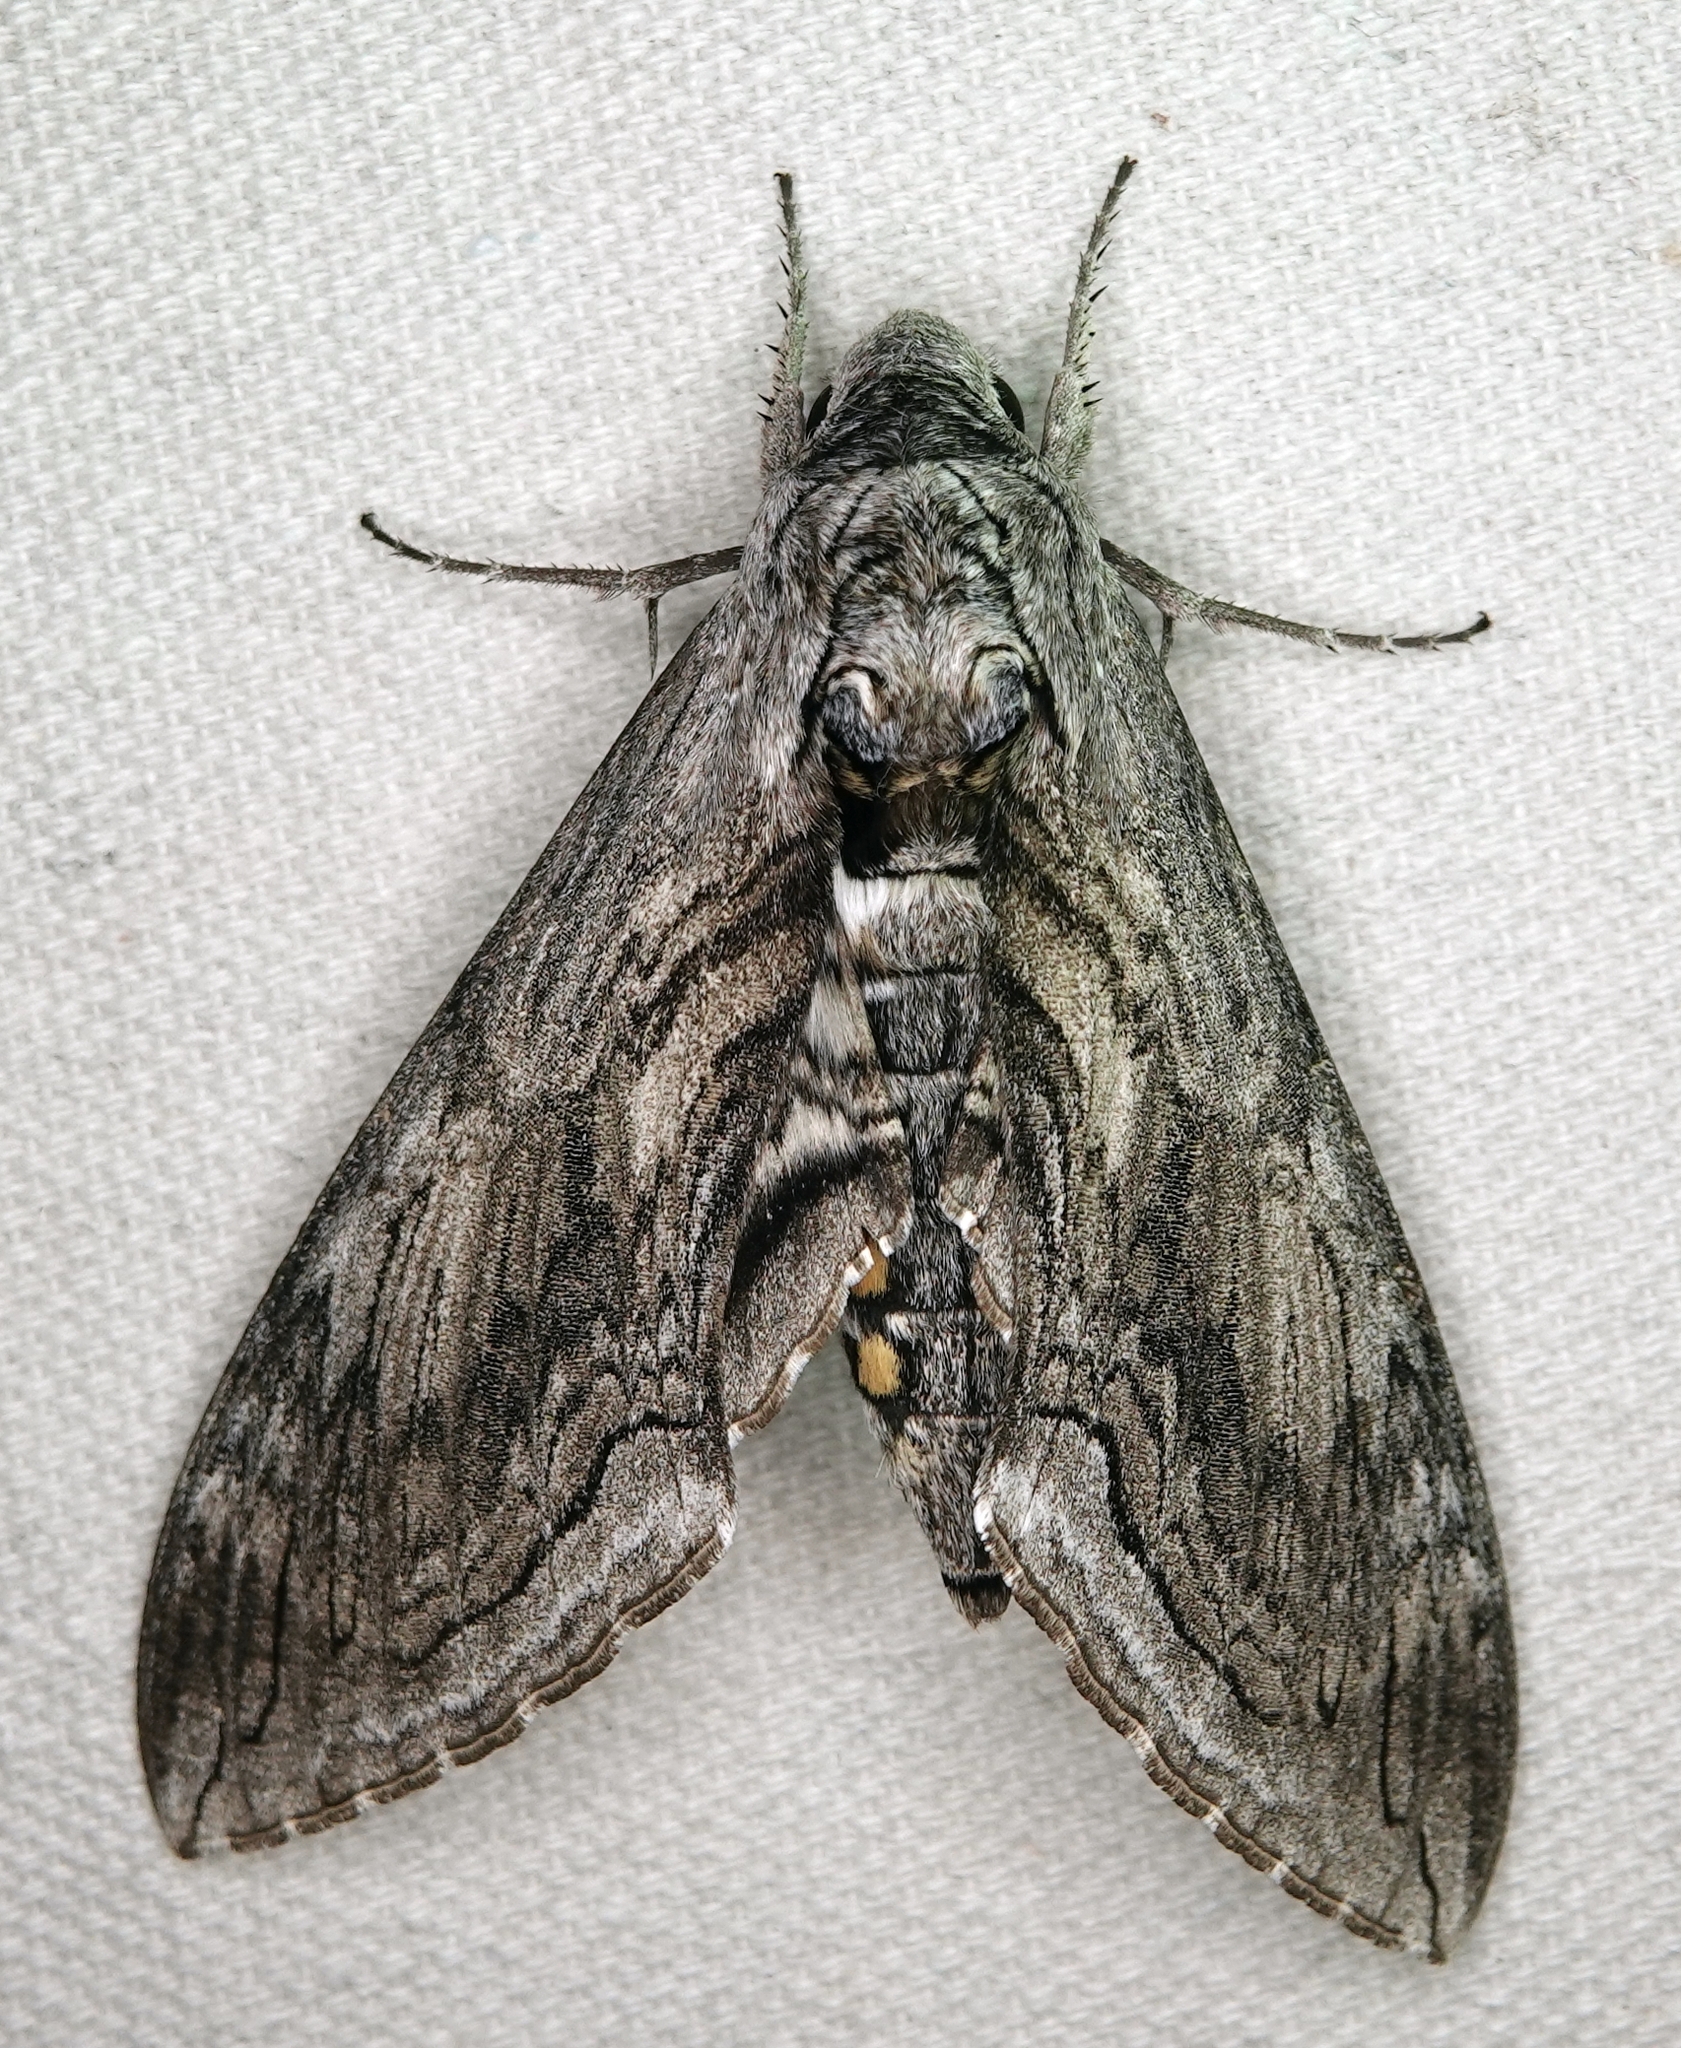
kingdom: Animalia
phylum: Arthropoda
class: Insecta
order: Lepidoptera
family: Sphingidae
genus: Manduca
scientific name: Manduca quinquemaculatus
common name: Five-spotted hawk-moth
